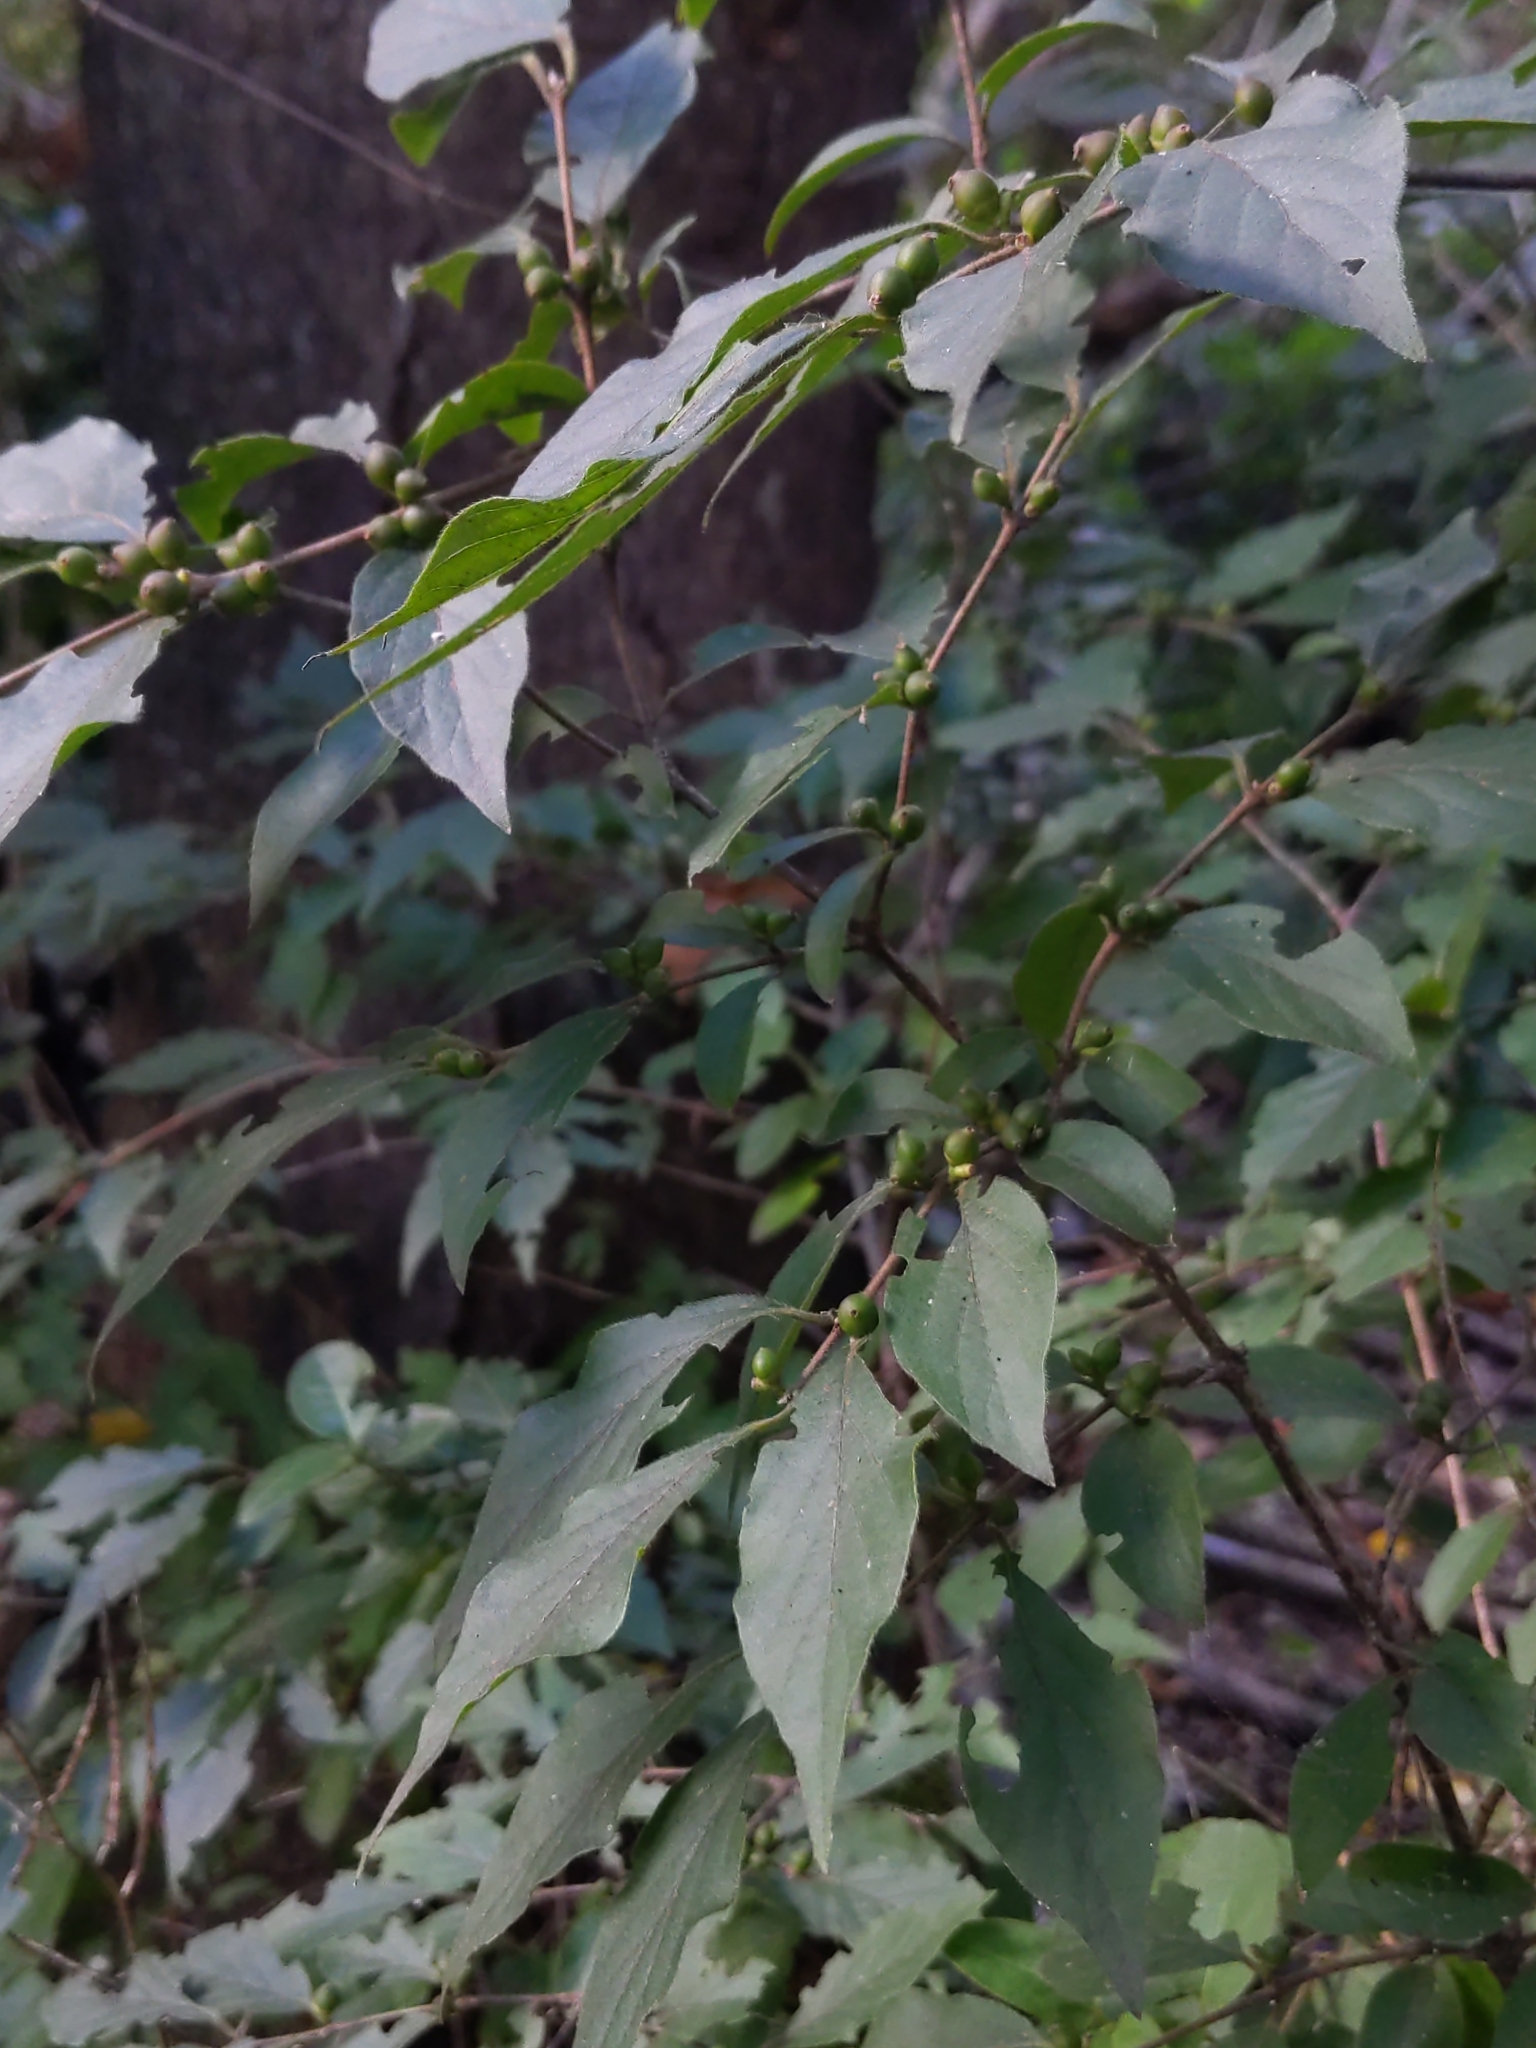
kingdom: Plantae
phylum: Tracheophyta
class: Magnoliopsida
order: Dipsacales
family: Caprifoliaceae
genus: Lonicera
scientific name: Lonicera maackii
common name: Amur honeysuckle
